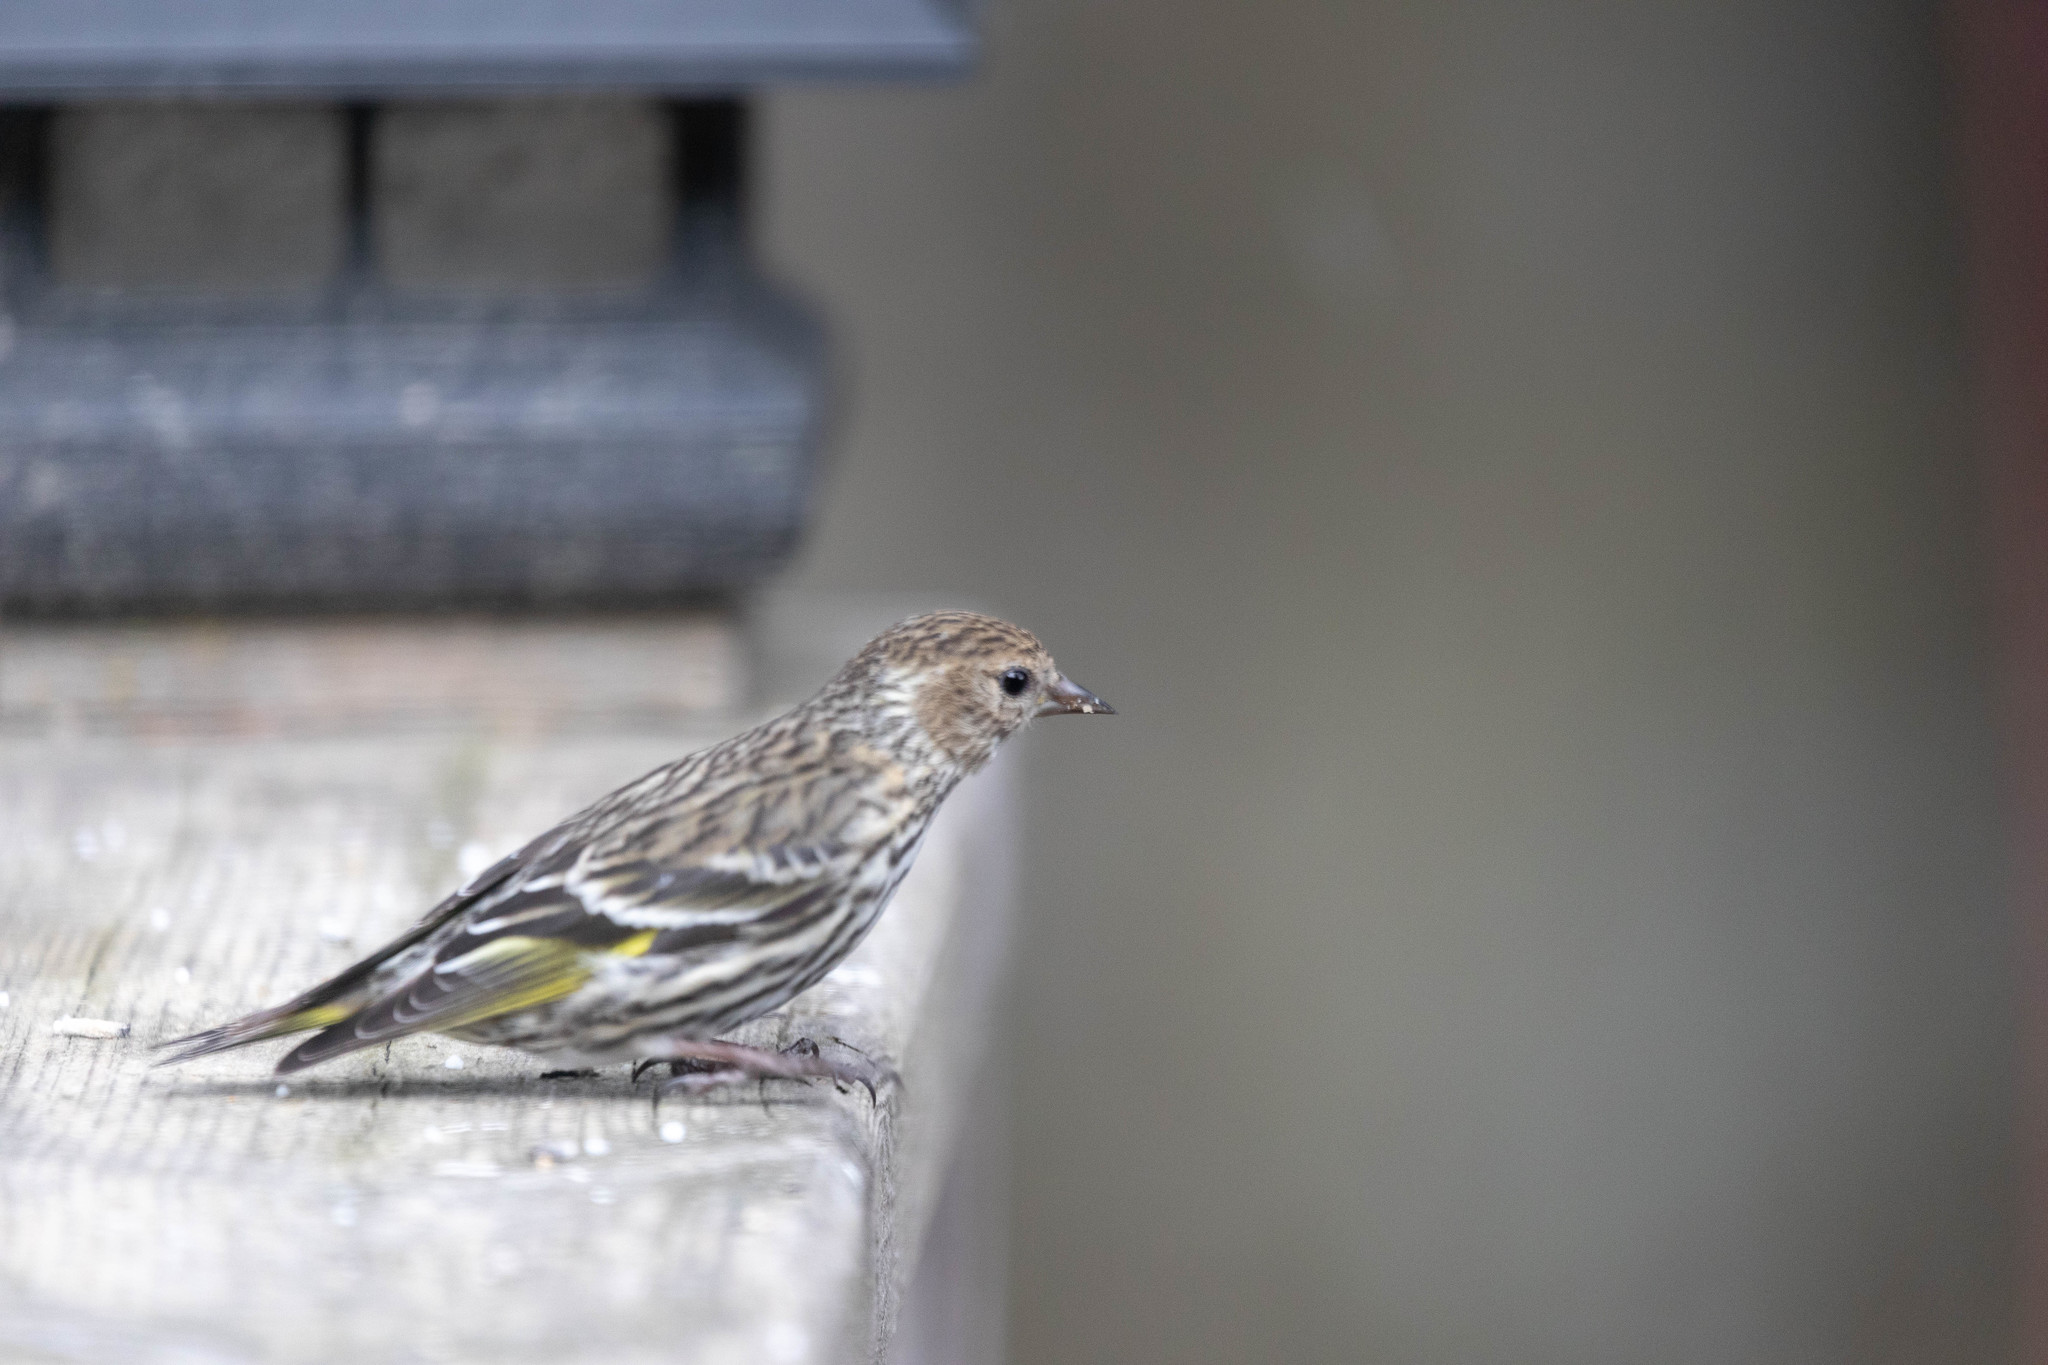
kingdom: Animalia
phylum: Chordata
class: Aves
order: Passeriformes
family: Fringillidae
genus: Spinus
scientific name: Spinus pinus
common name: Pine siskin
